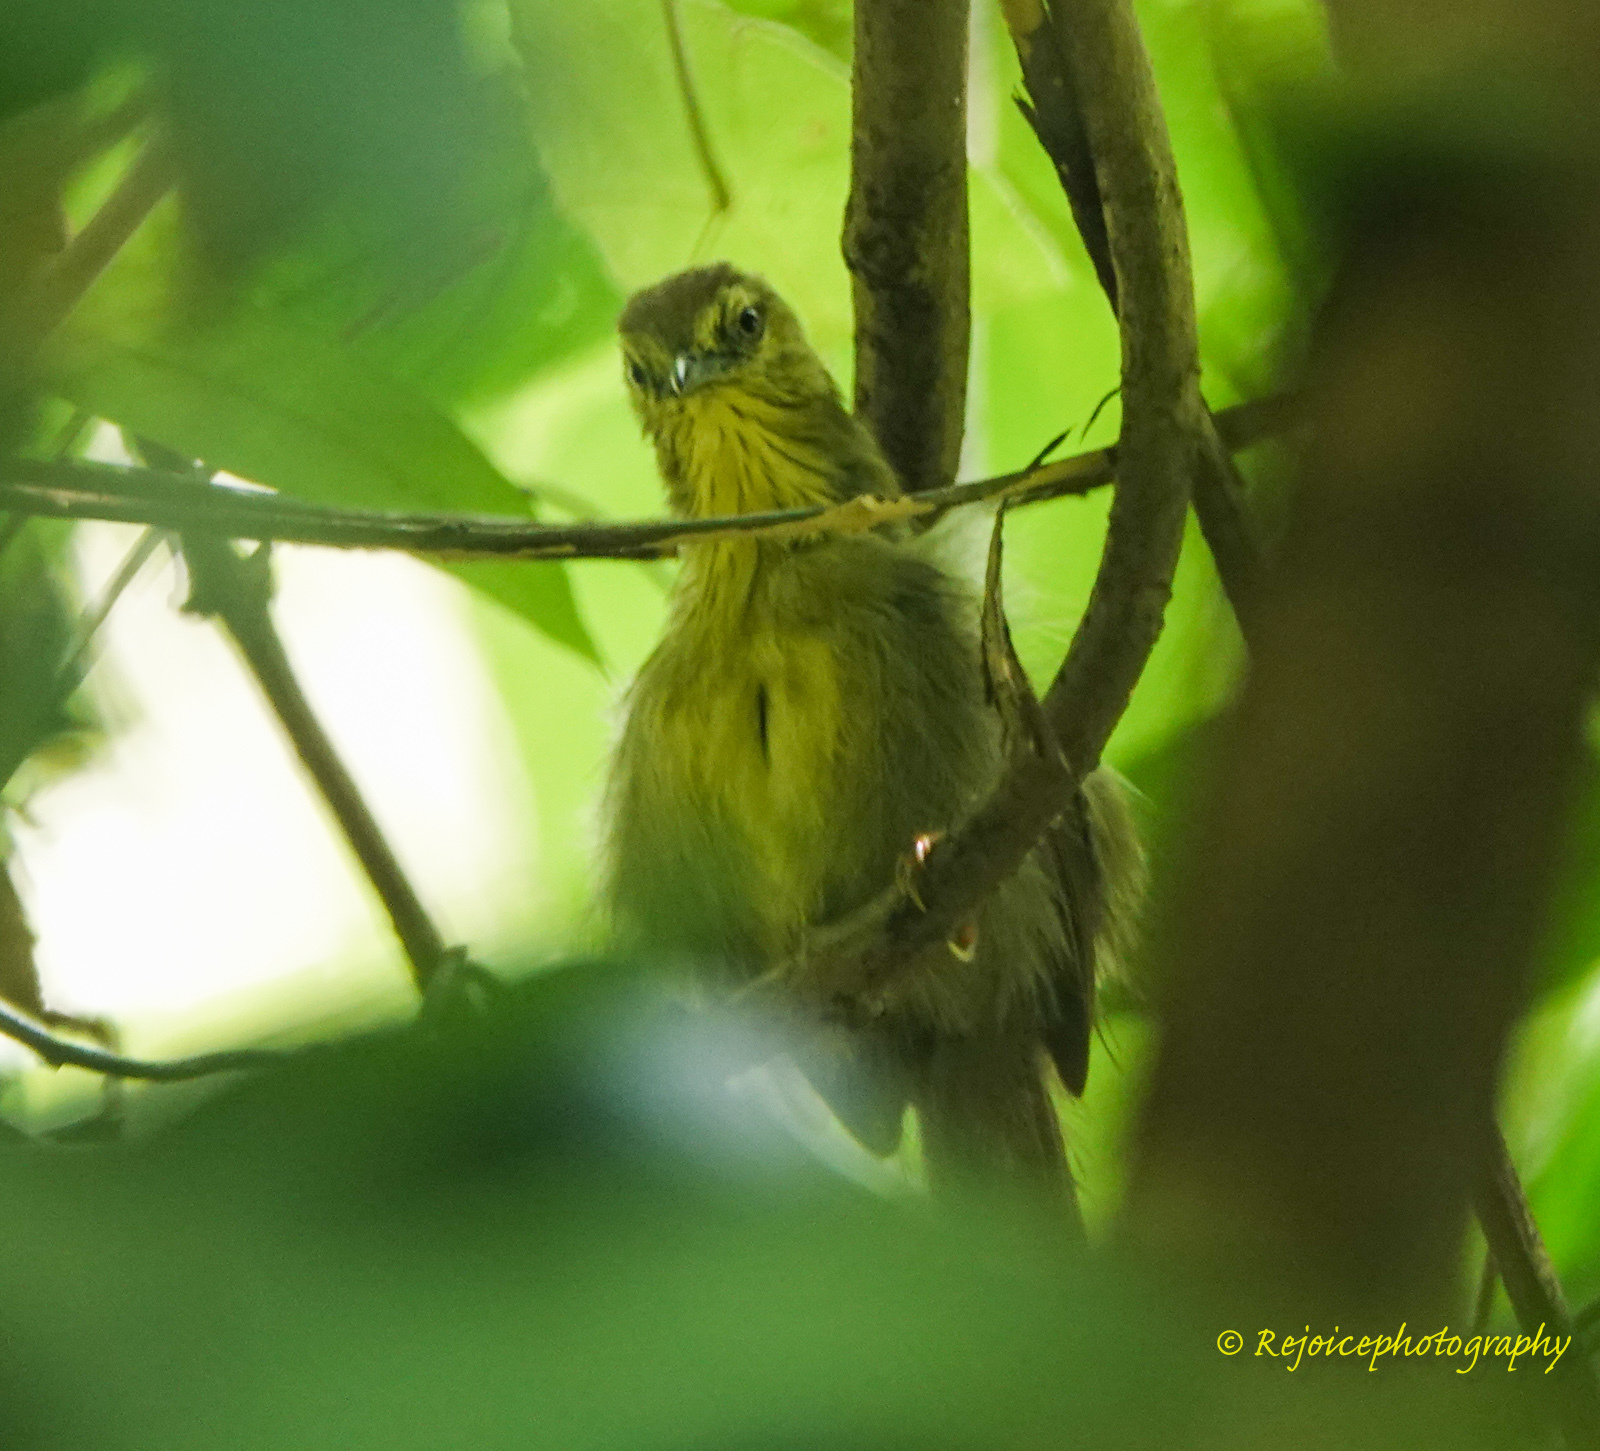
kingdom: Animalia
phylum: Chordata
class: Aves
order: Passeriformes
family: Timaliidae
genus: Macronus
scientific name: Macronus gularis
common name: Striped tit-babbler
